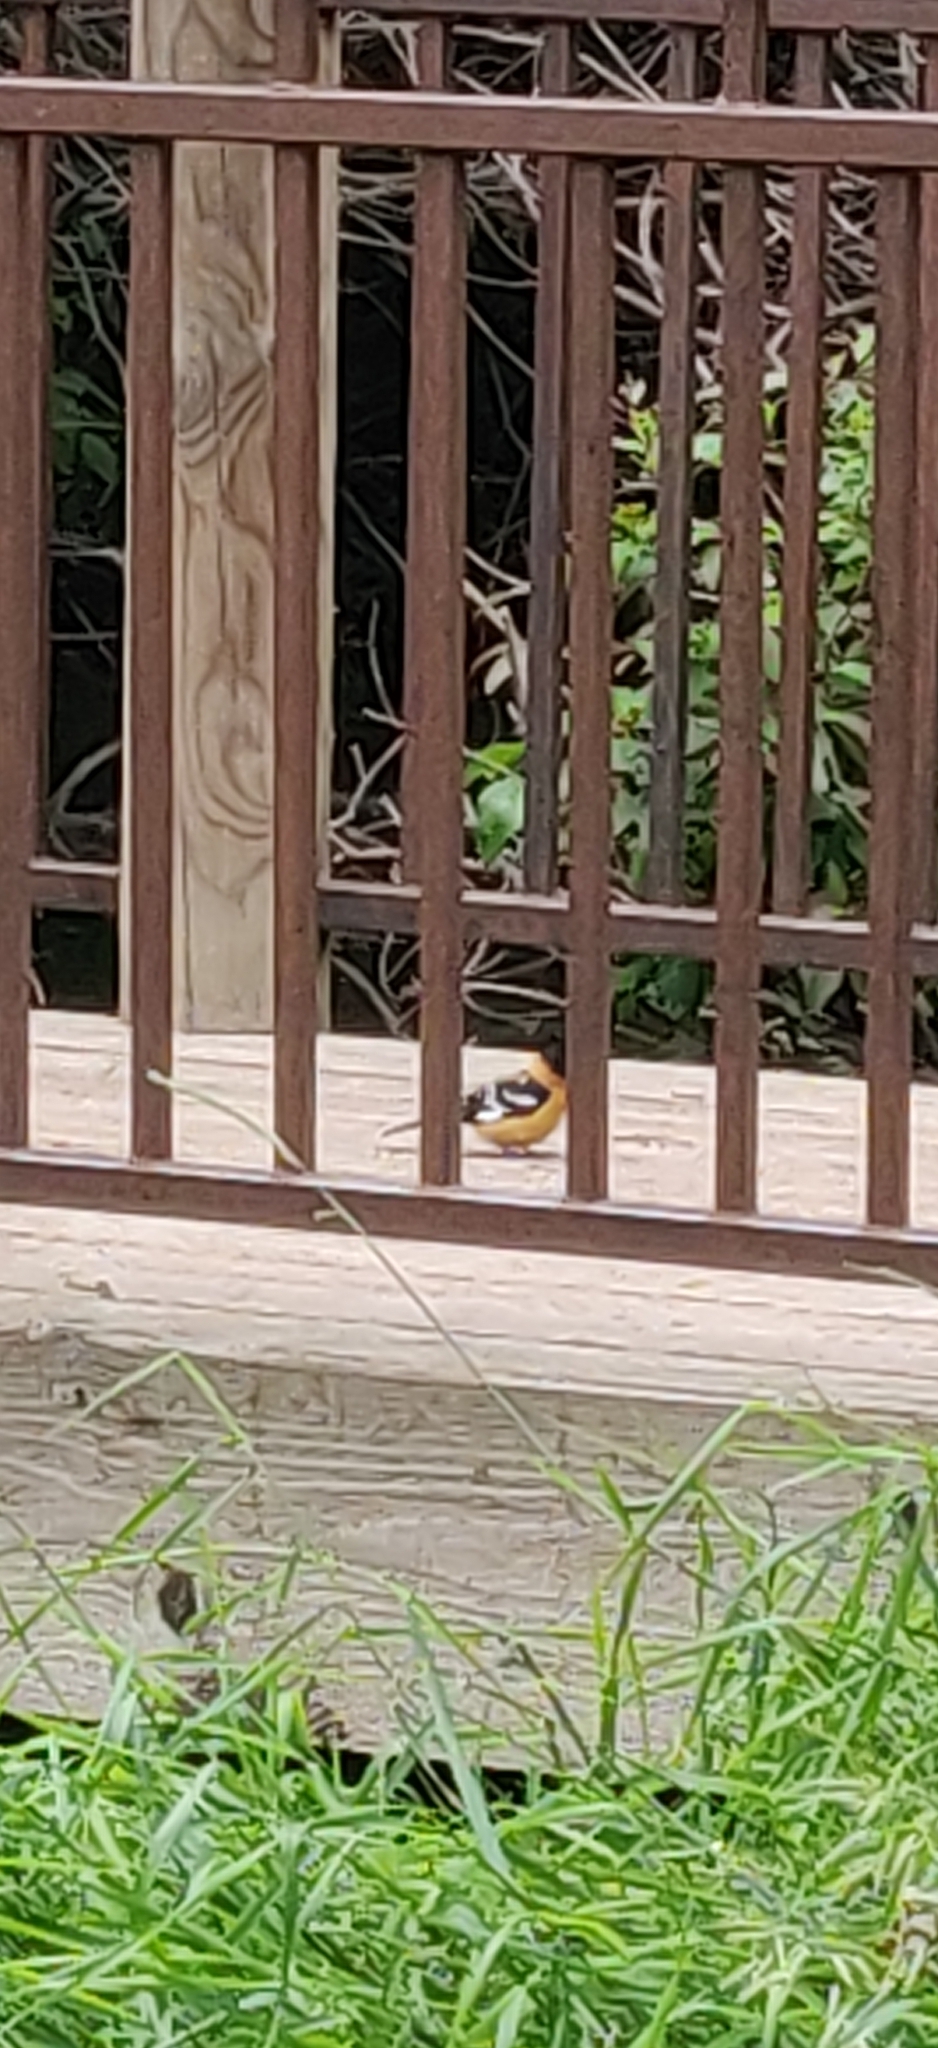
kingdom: Animalia
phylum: Chordata
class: Aves
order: Passeriformes
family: Cardinalidae
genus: Pheucticus
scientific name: Pheucticus melanocephalus
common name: Black-headed grosbeak
